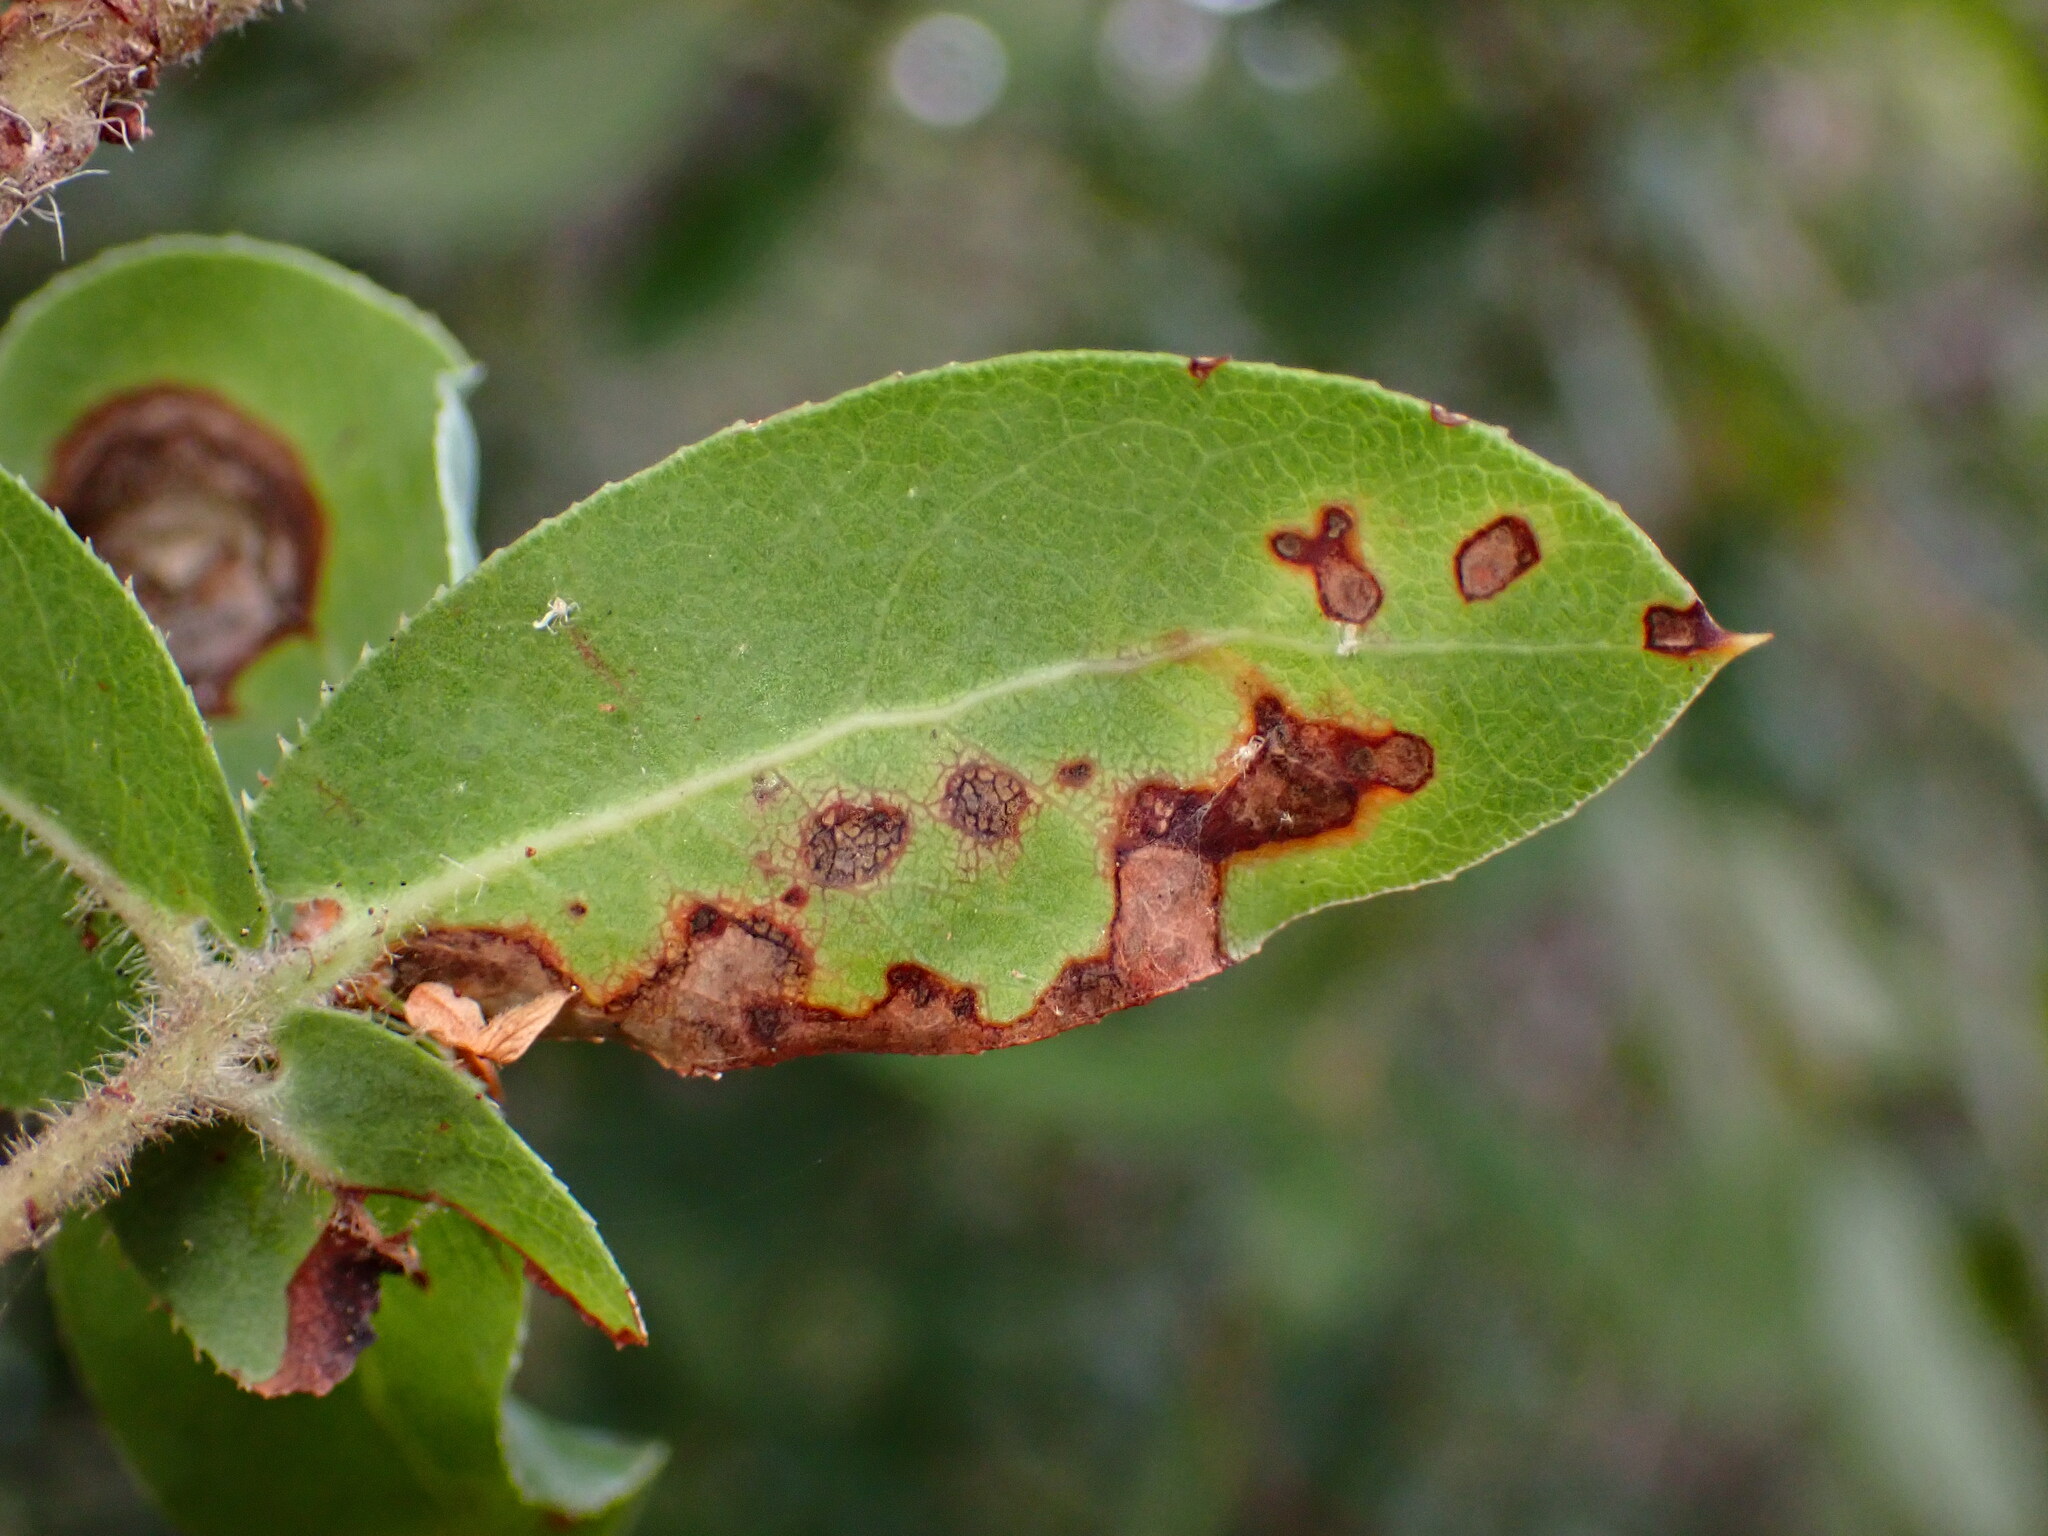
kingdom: Animalia
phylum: Arthropoda
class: Insecta
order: Lepidoptera
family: Gracillariidae
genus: Marmara
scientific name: Marmara arbutiella
